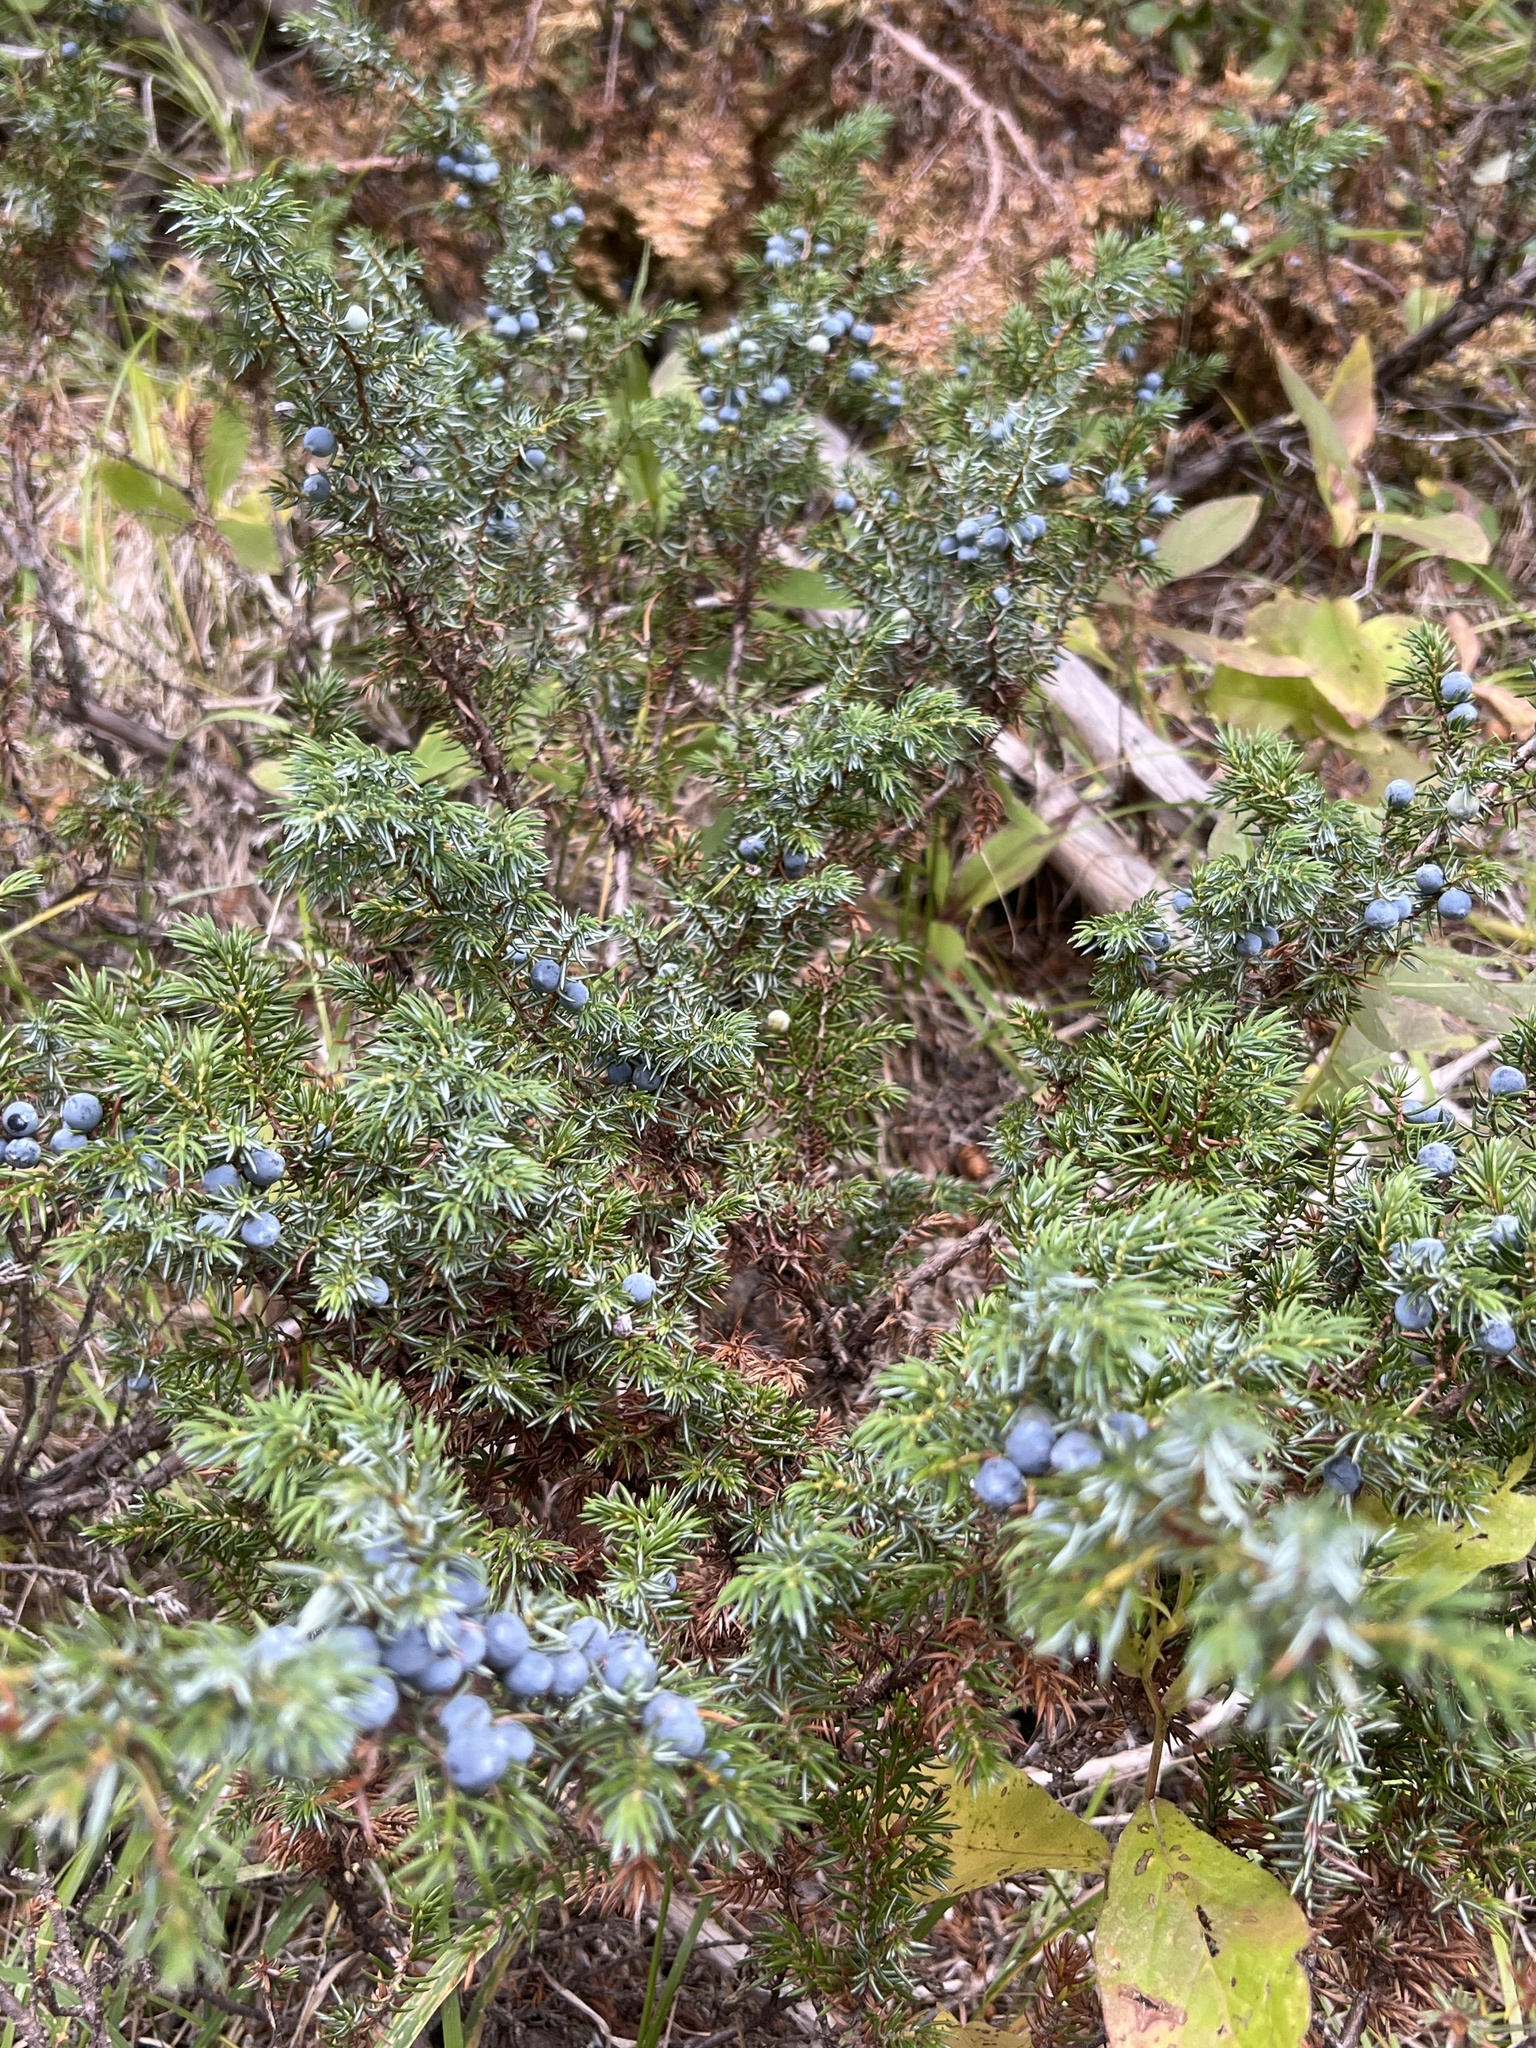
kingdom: Plantae
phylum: Tracheophyta
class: Pinopsida
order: Pinales
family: Cupressaceae
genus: Juniperus
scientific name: Juniperus communis
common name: Common juniper
